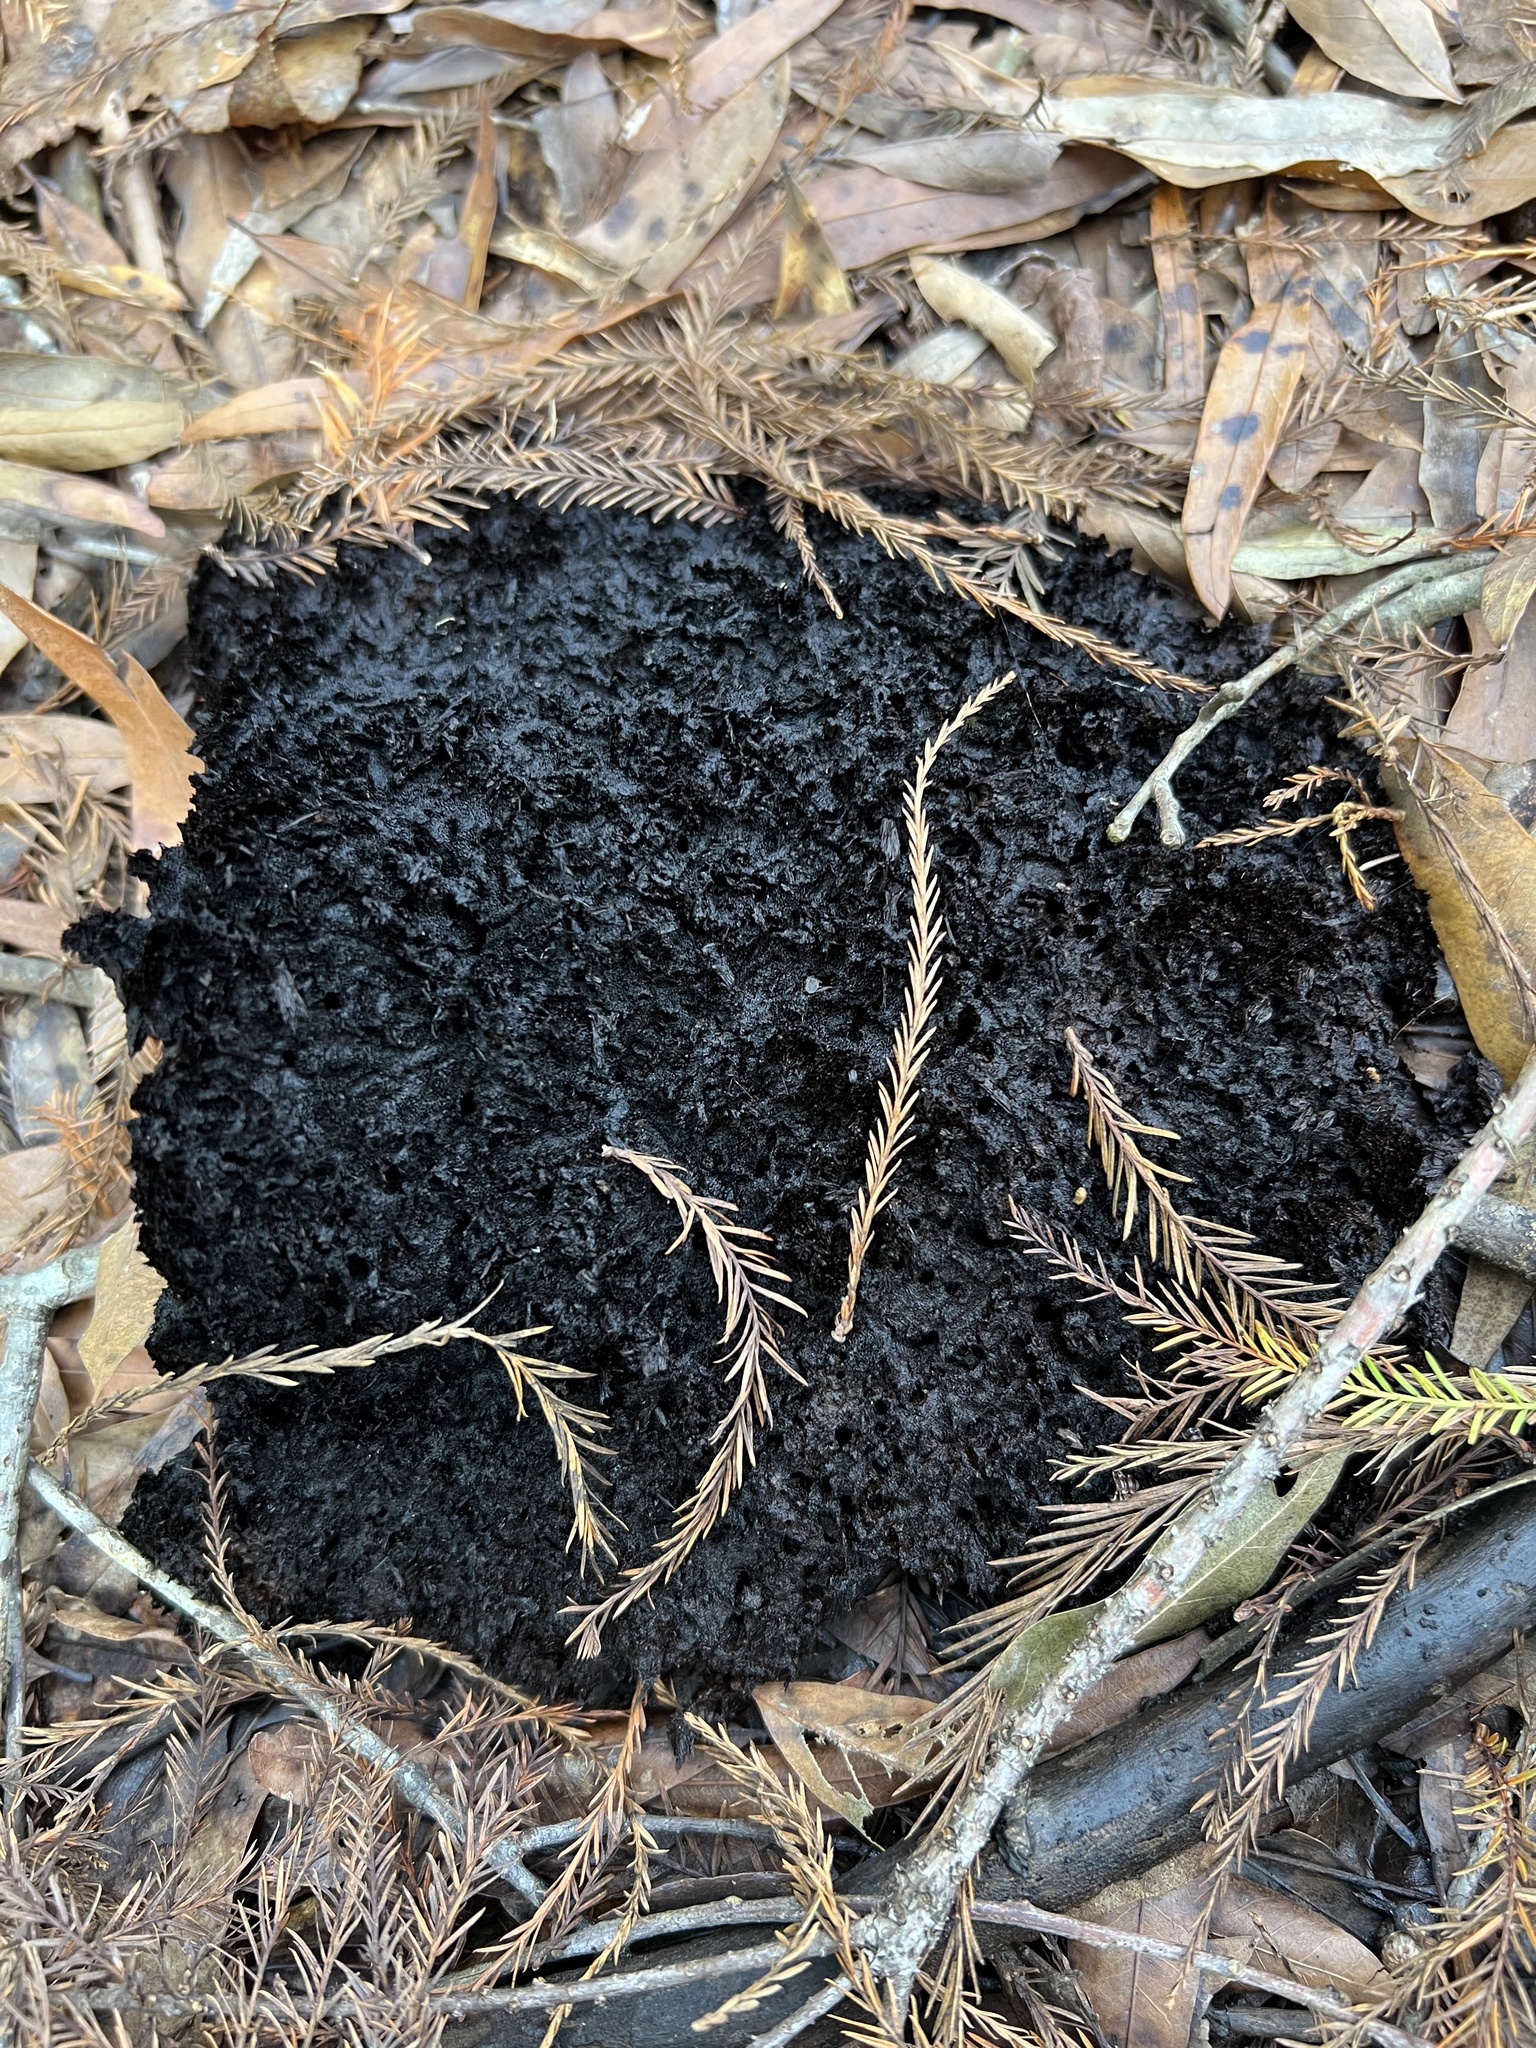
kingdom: Fungi
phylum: Ascomycota
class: Dothideomycetes
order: Capnodiales
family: Capnodiaceae
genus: Scorias
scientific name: Scorias spongiosa
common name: Black sooty mold
